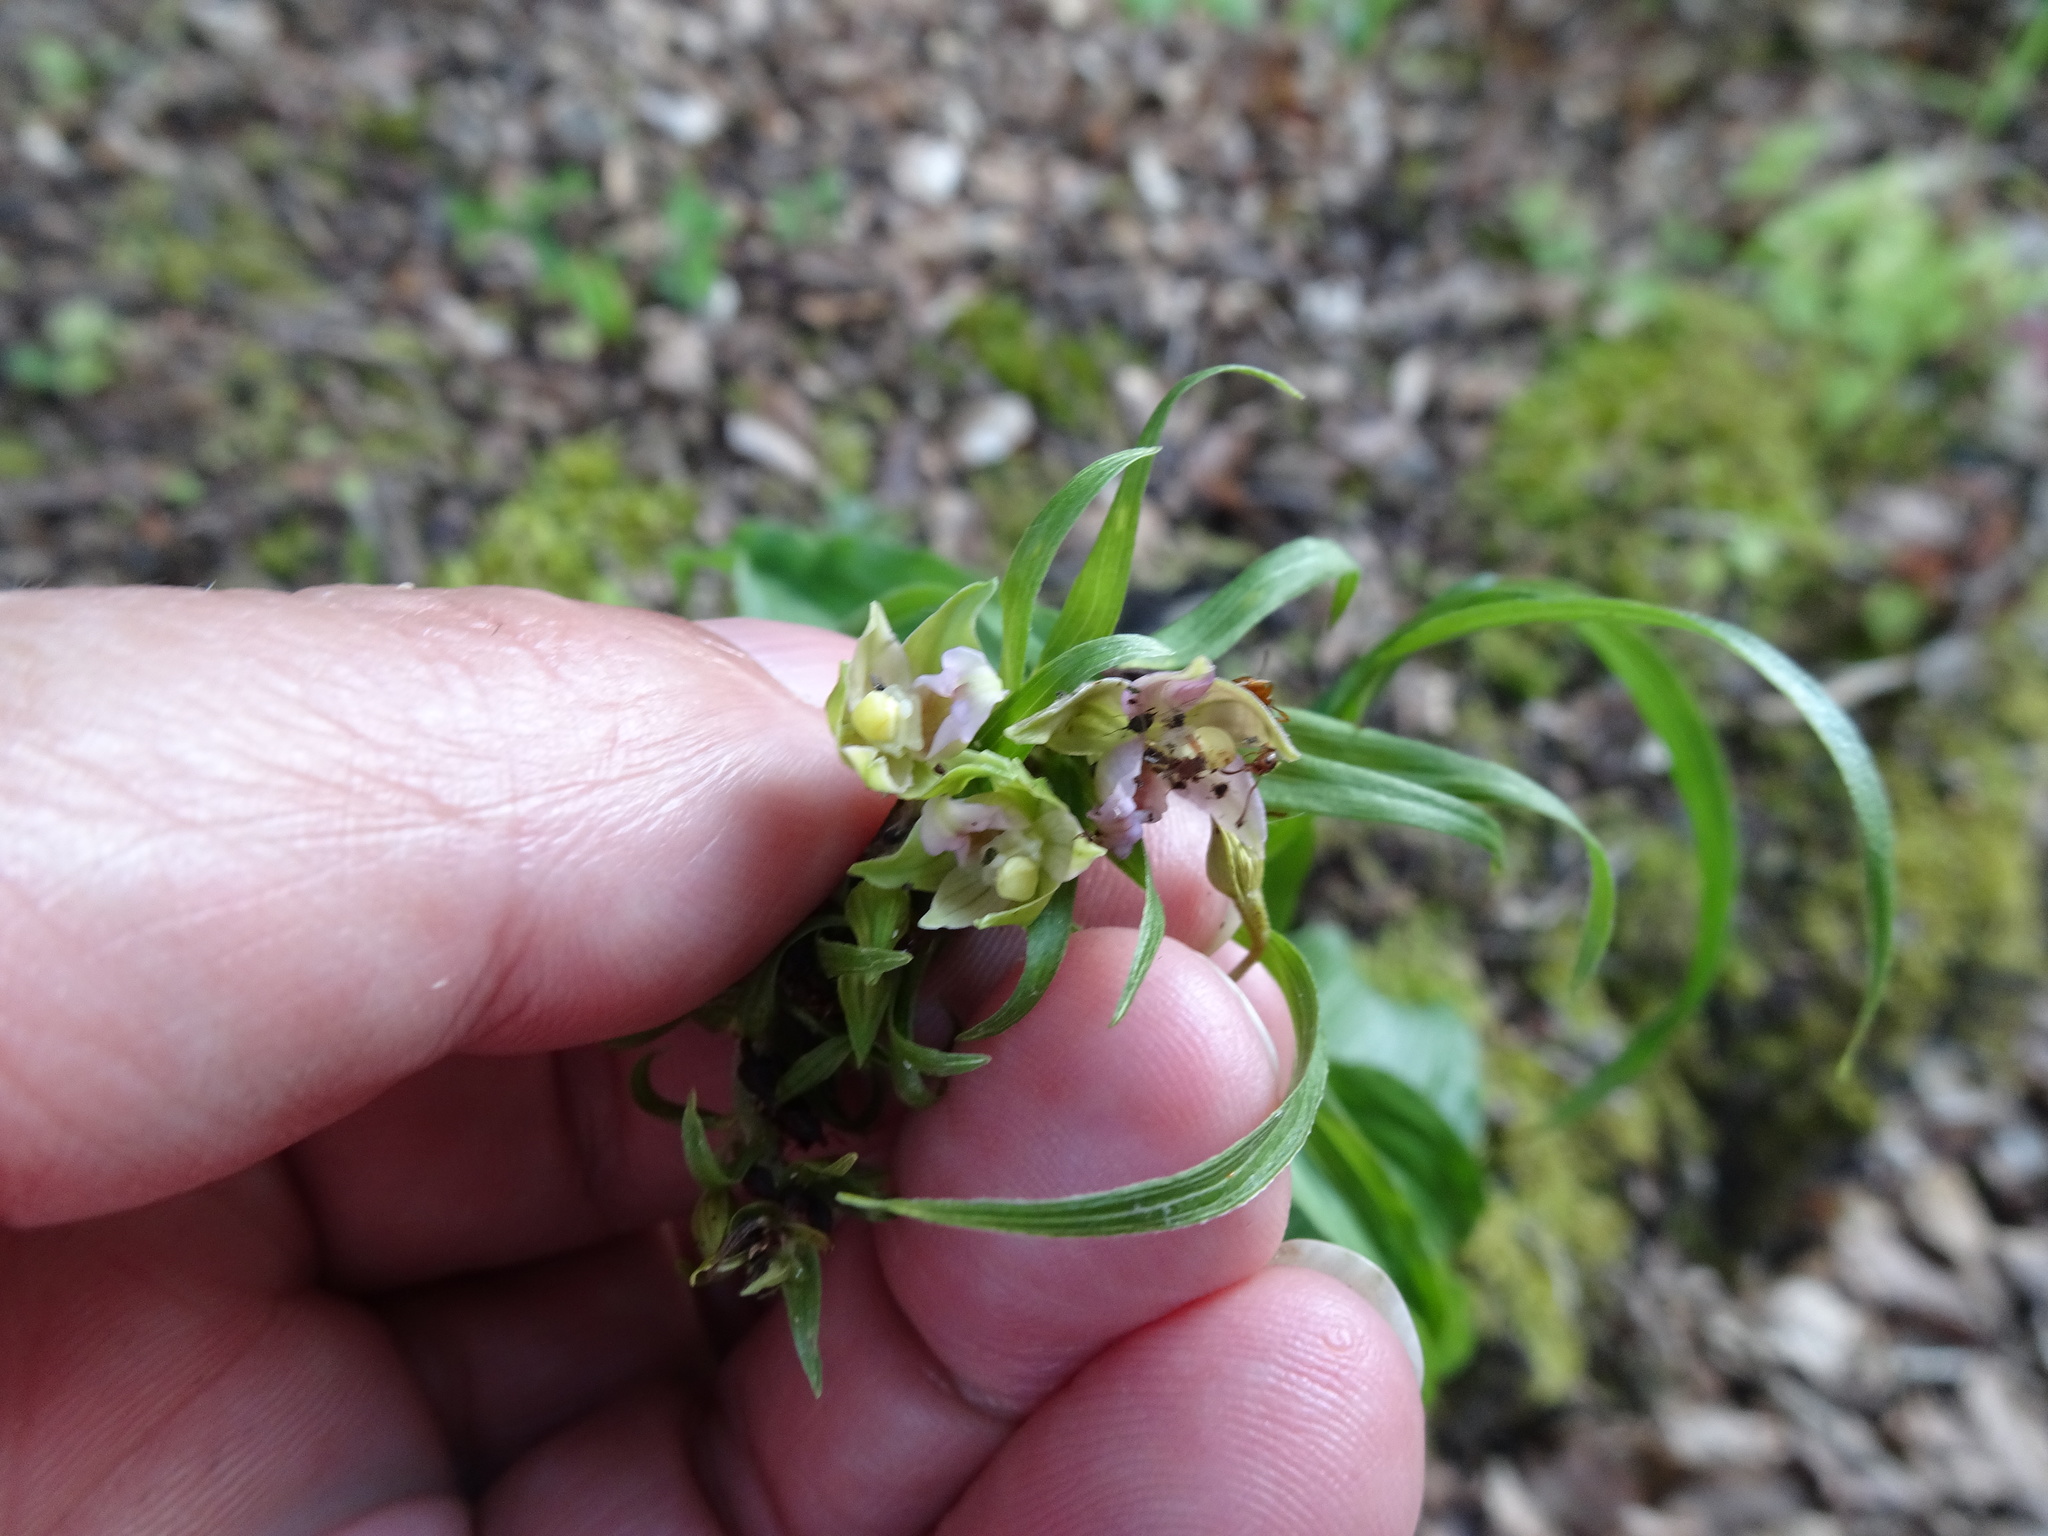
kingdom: Plantae
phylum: Tracheophyta
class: Liliopsida
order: Asparagales
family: Orchidaceae
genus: Epipactis
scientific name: Epipactis helleborine
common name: Broad-leaved helleborine
